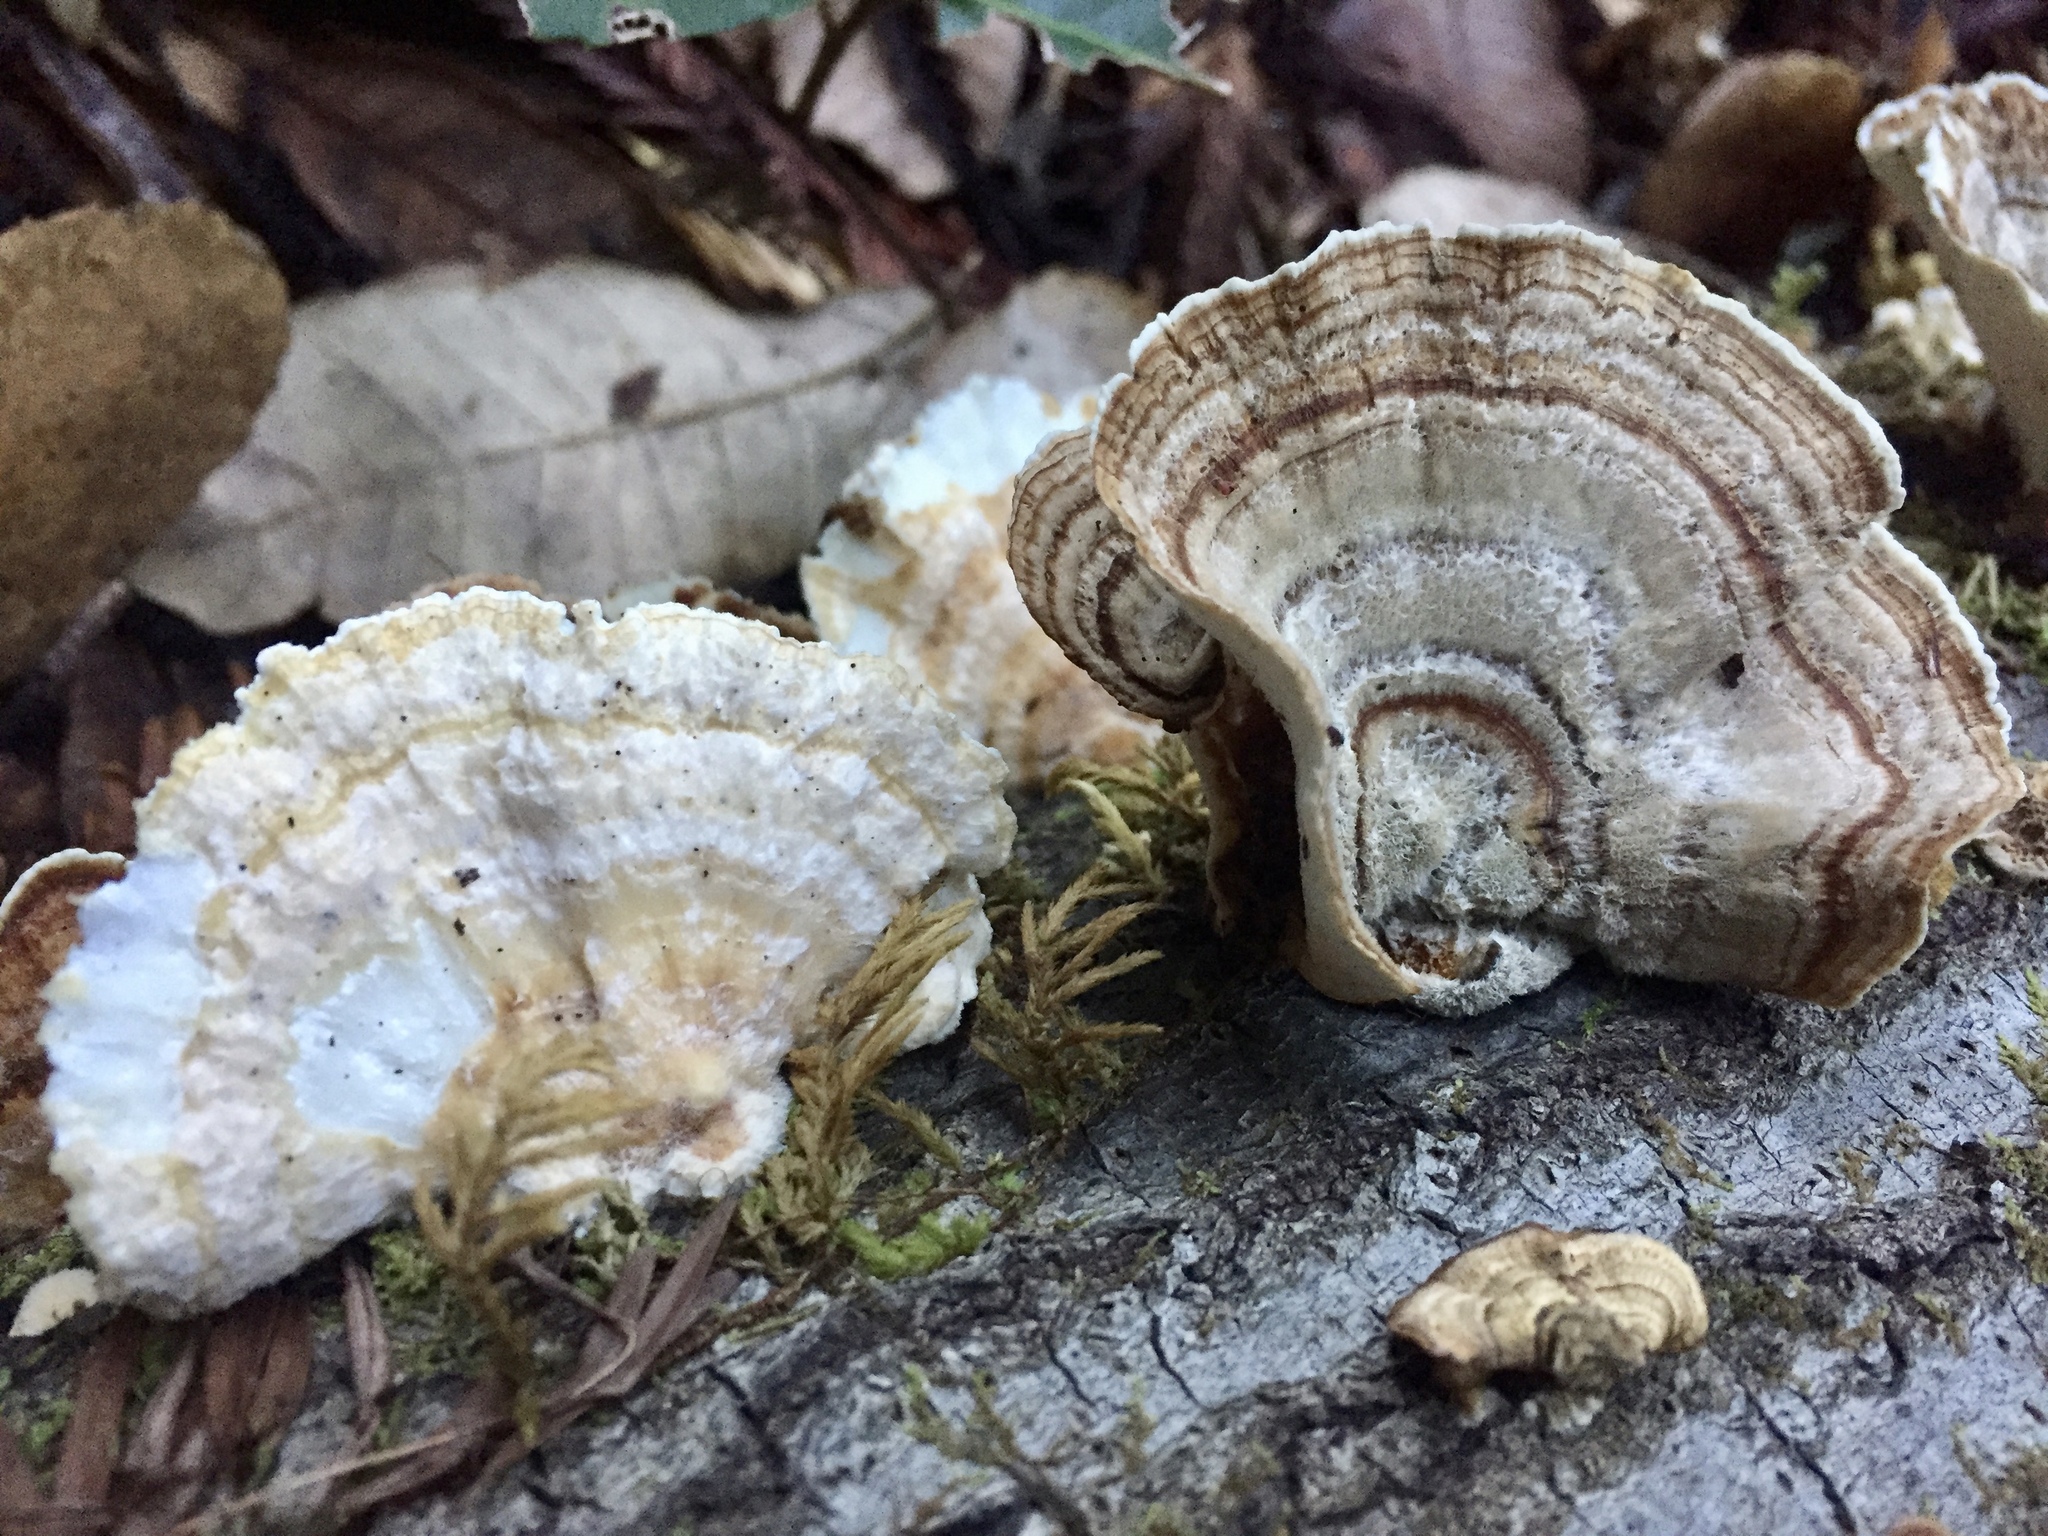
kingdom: Fungi
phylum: Basidiomycota
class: Agaricomycetes
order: Polyporales
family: Polyporaceae
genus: Trametes
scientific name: Trametes versicolor
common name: Turkeytail
